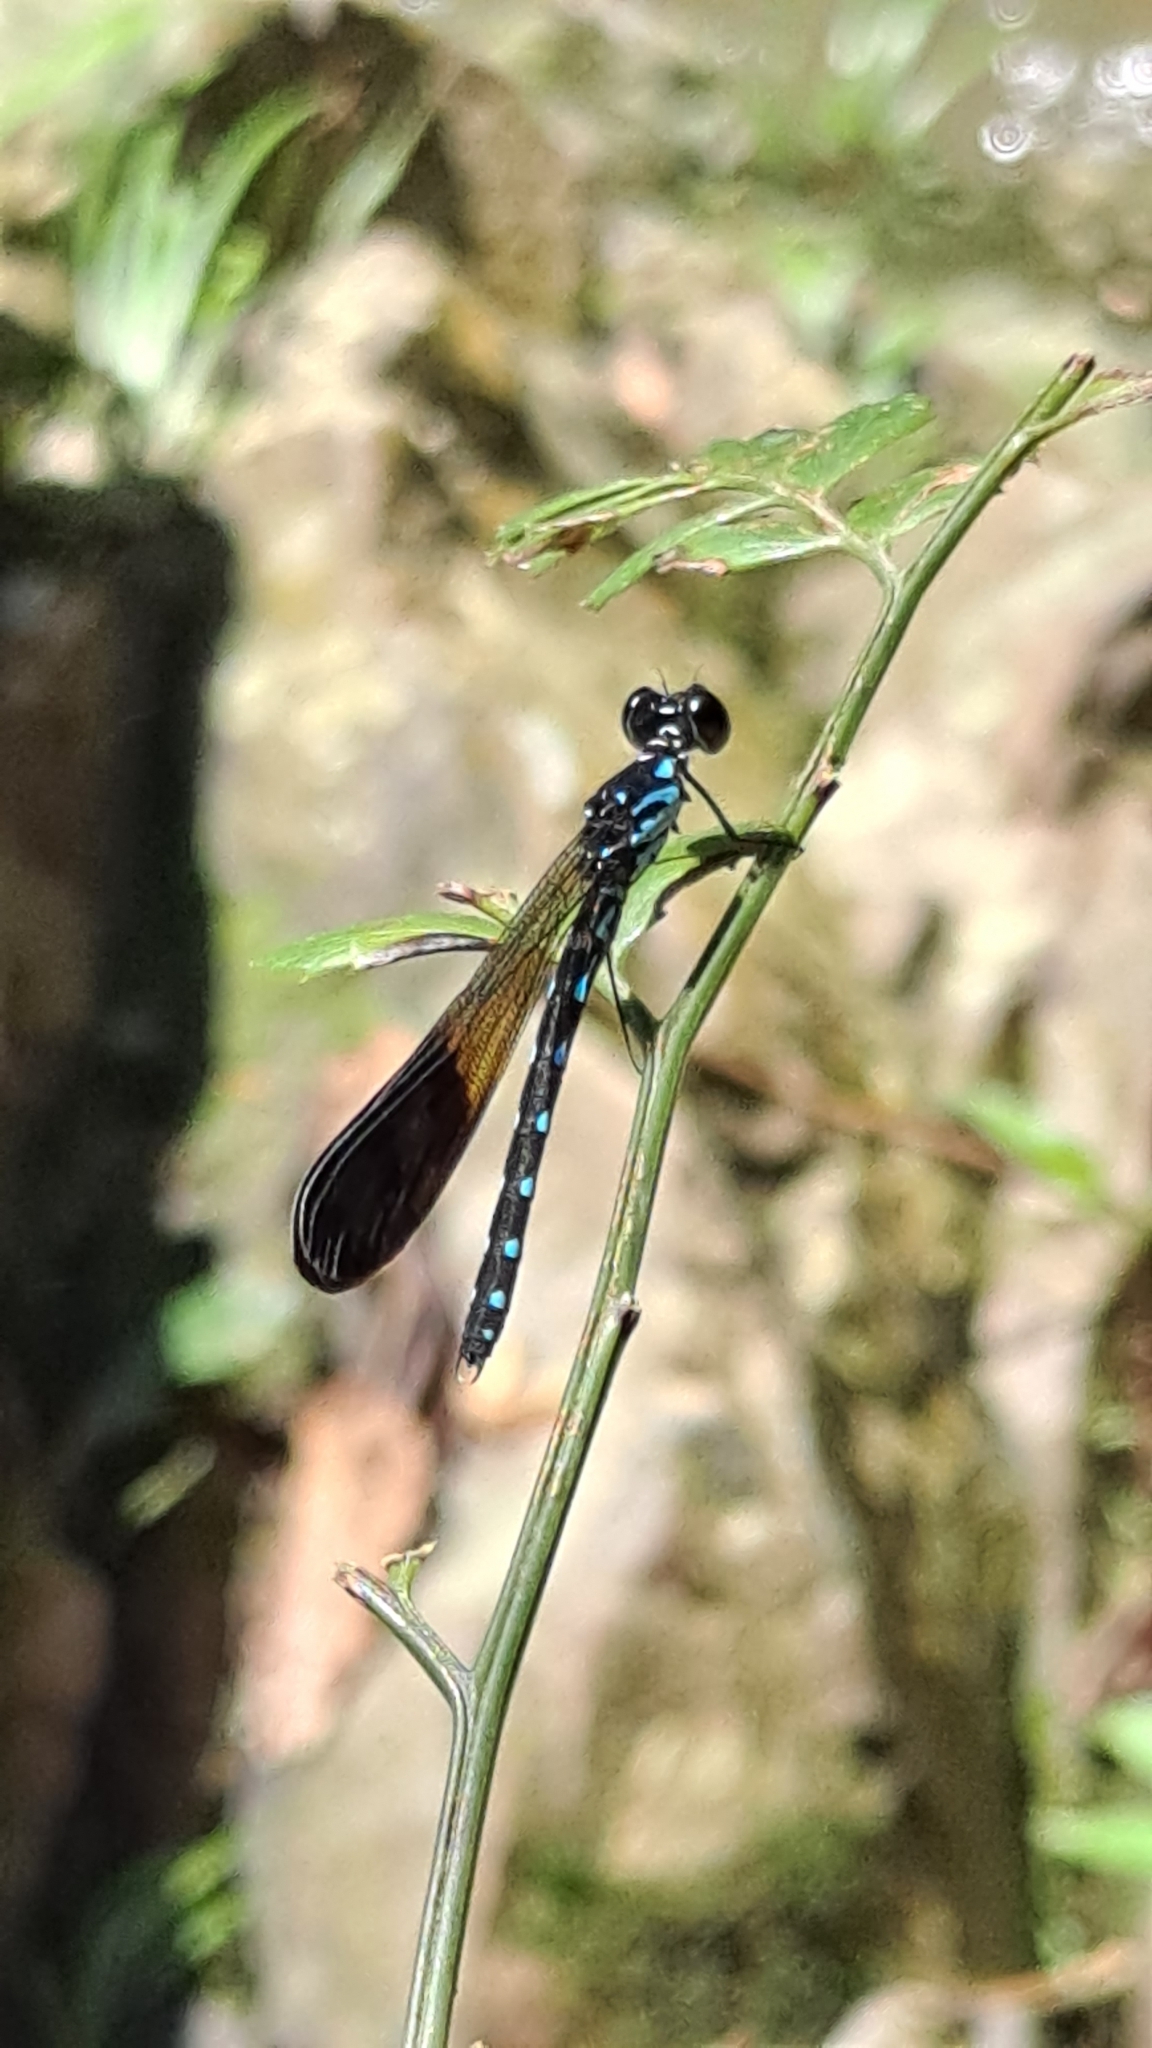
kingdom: Animalia
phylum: Arthropoda
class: Insecta
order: Odonata
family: Chlorocyphidae
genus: Heliocypha
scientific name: Heliocypha perforata
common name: Common blue jewel
